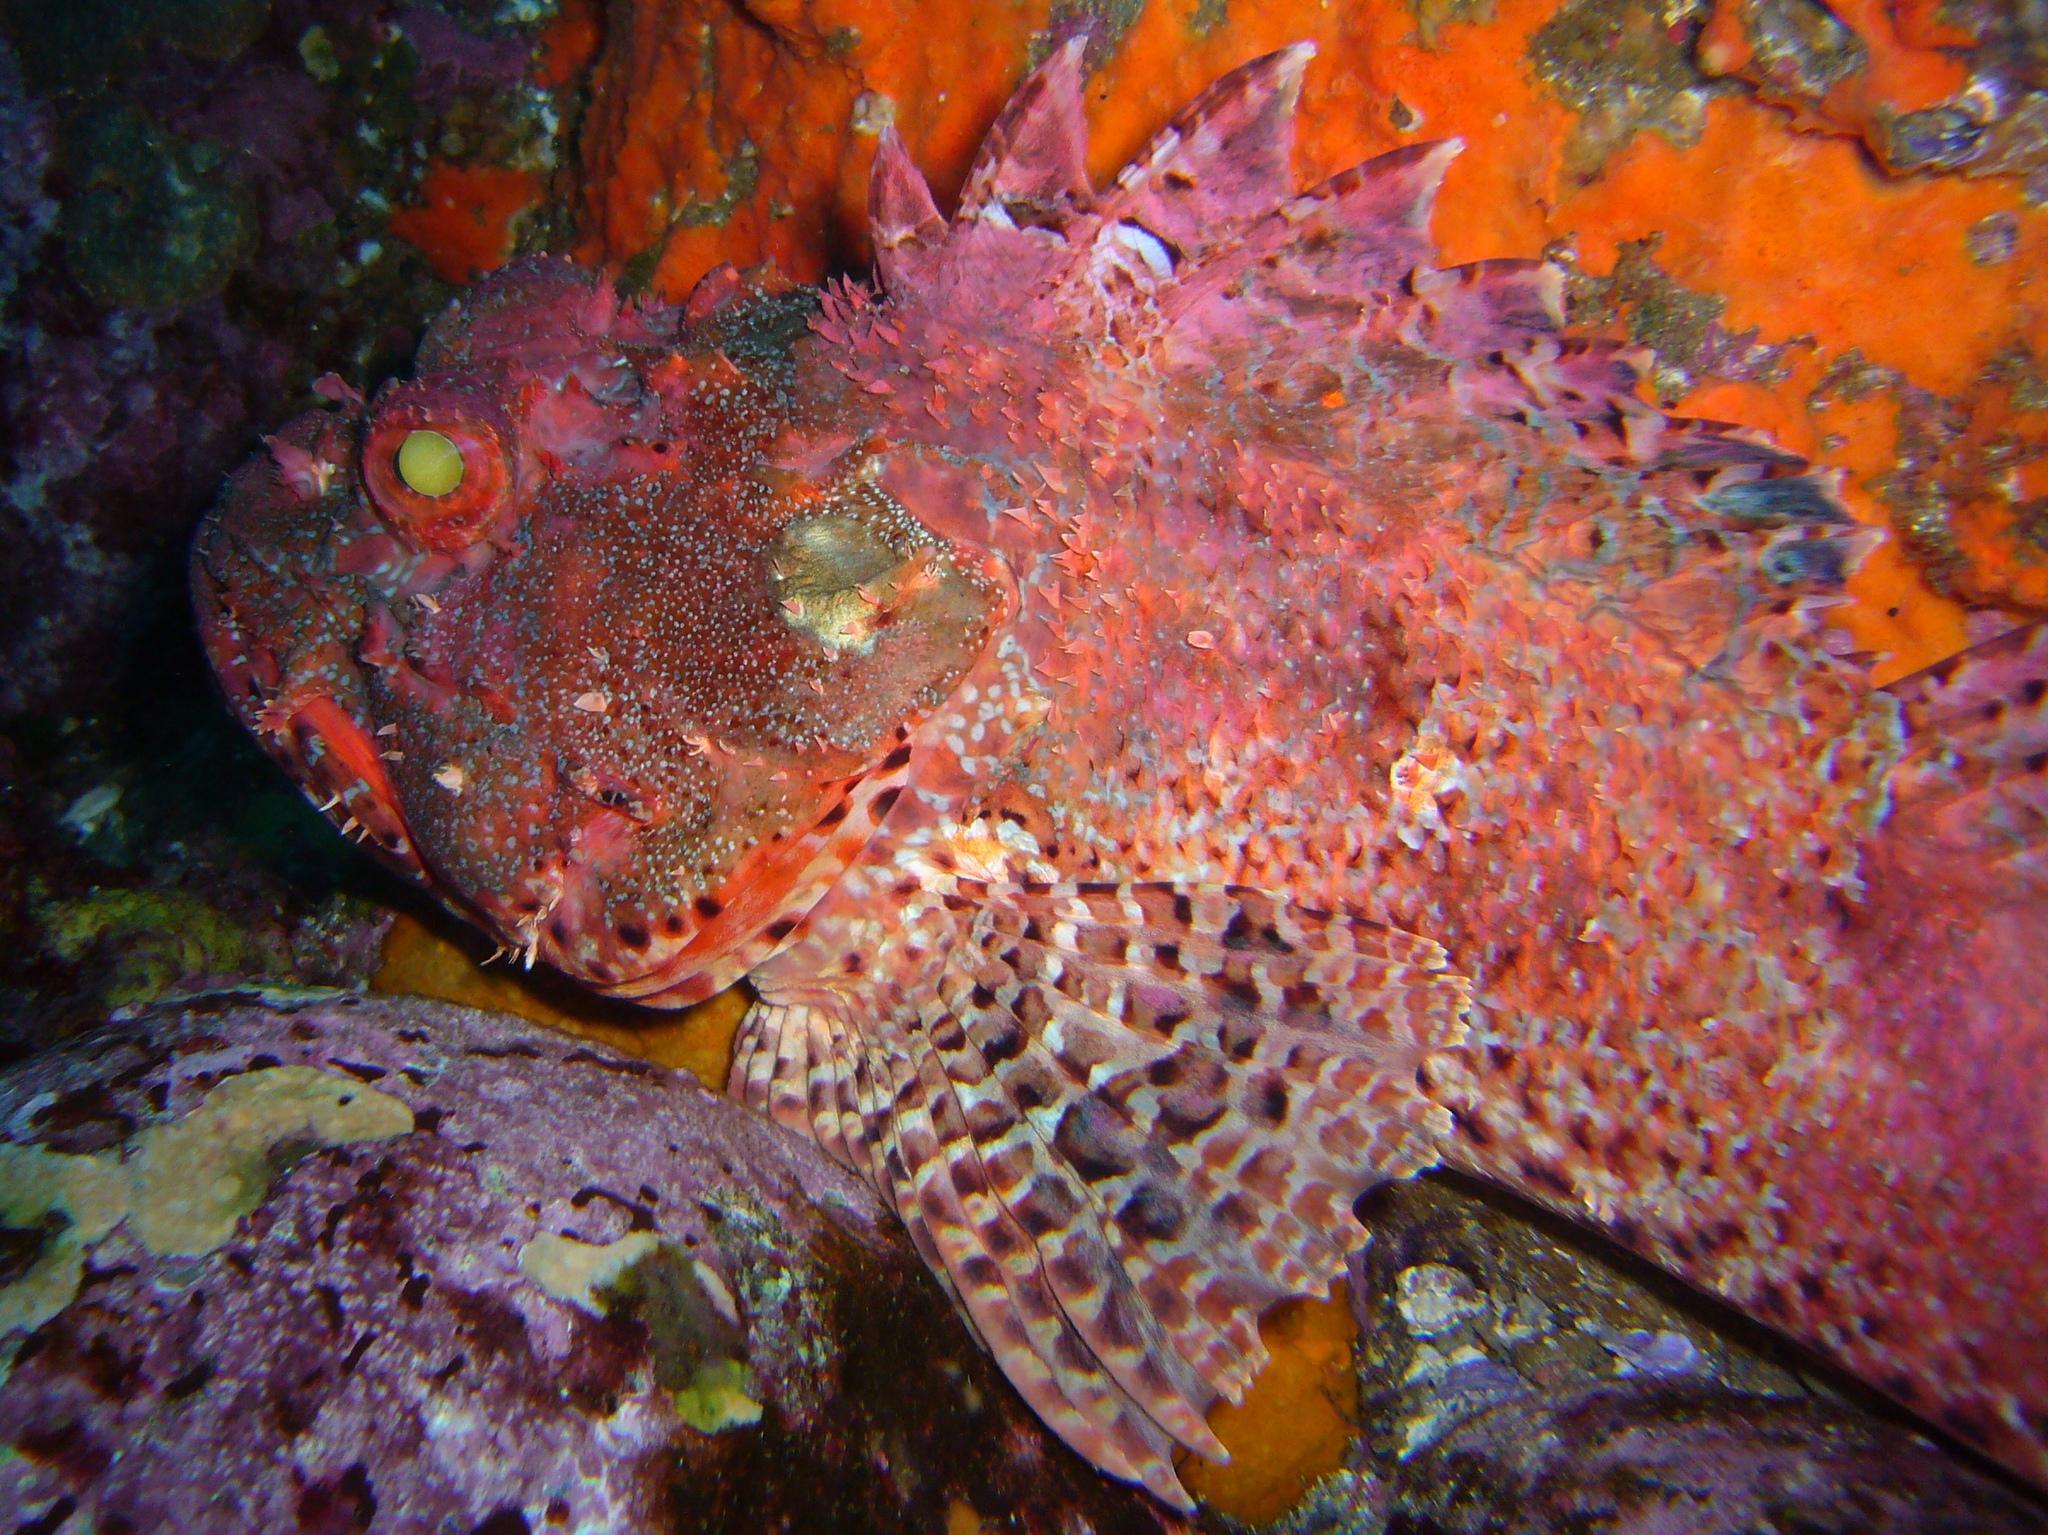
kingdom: Animalia
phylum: Chordata
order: Scorpaeniformes
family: Scorpaenidae
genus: Scorpaena
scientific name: Scorpaena jacksoniensis
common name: Eastern red scorpionfish
